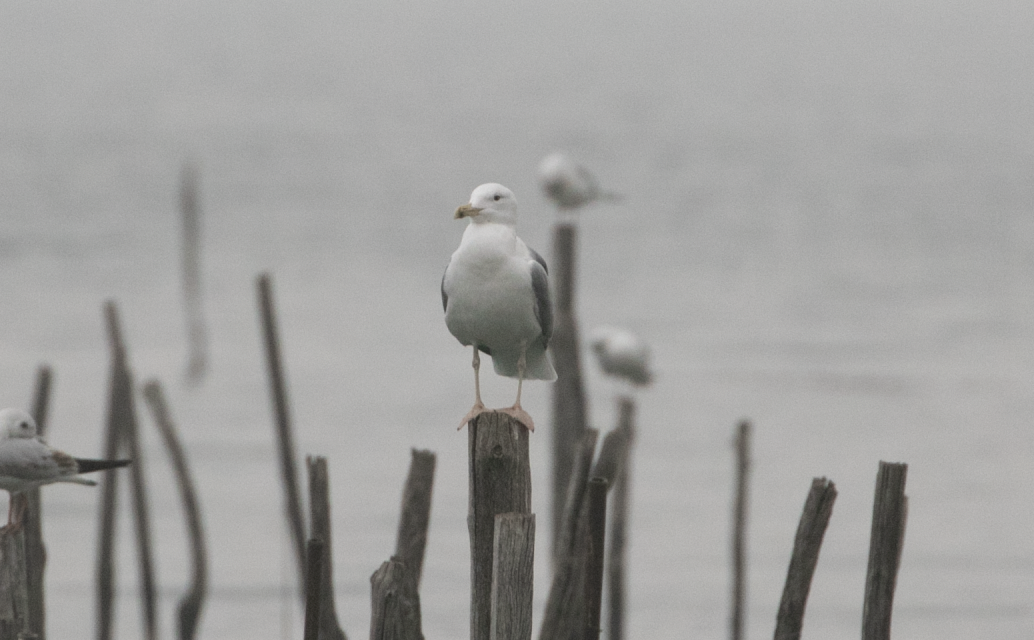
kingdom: Animalia
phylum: Chordata
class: Aves
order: Charadriiformes
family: Laridae
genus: Larus
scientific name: Larus cachinnans
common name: Caspian gull
